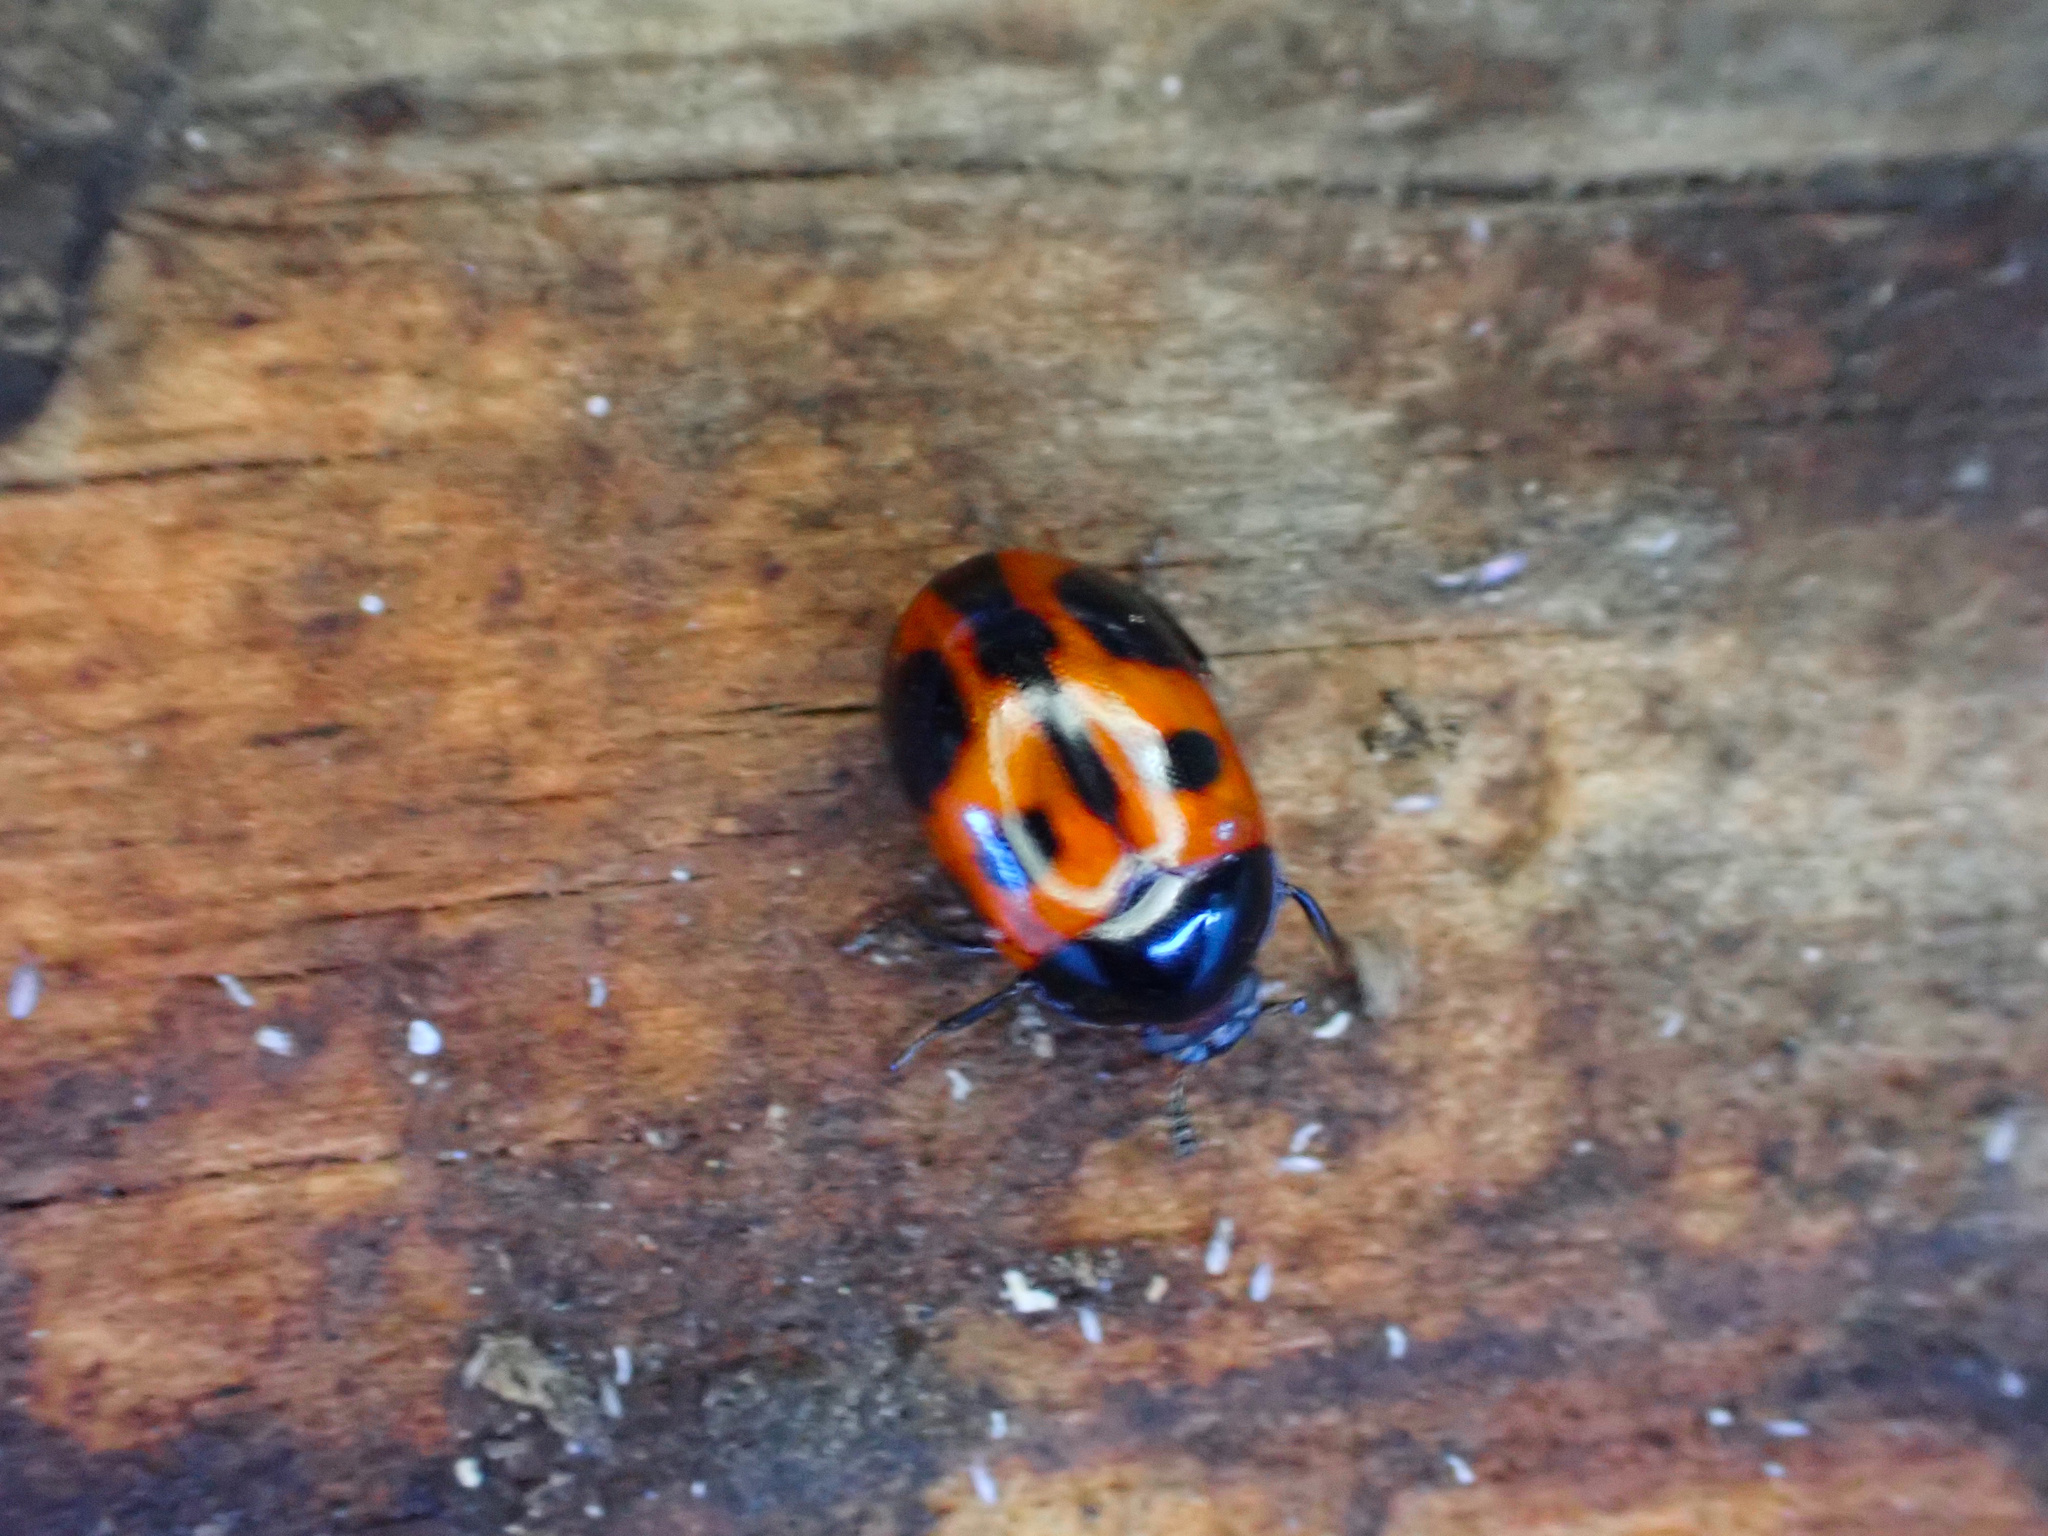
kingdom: Animalia
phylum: Arthropoda
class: Insecta
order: Coleoptera
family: Tenebrionidae
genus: Diaperis
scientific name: Diaperis maculata
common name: Darkling beetle
